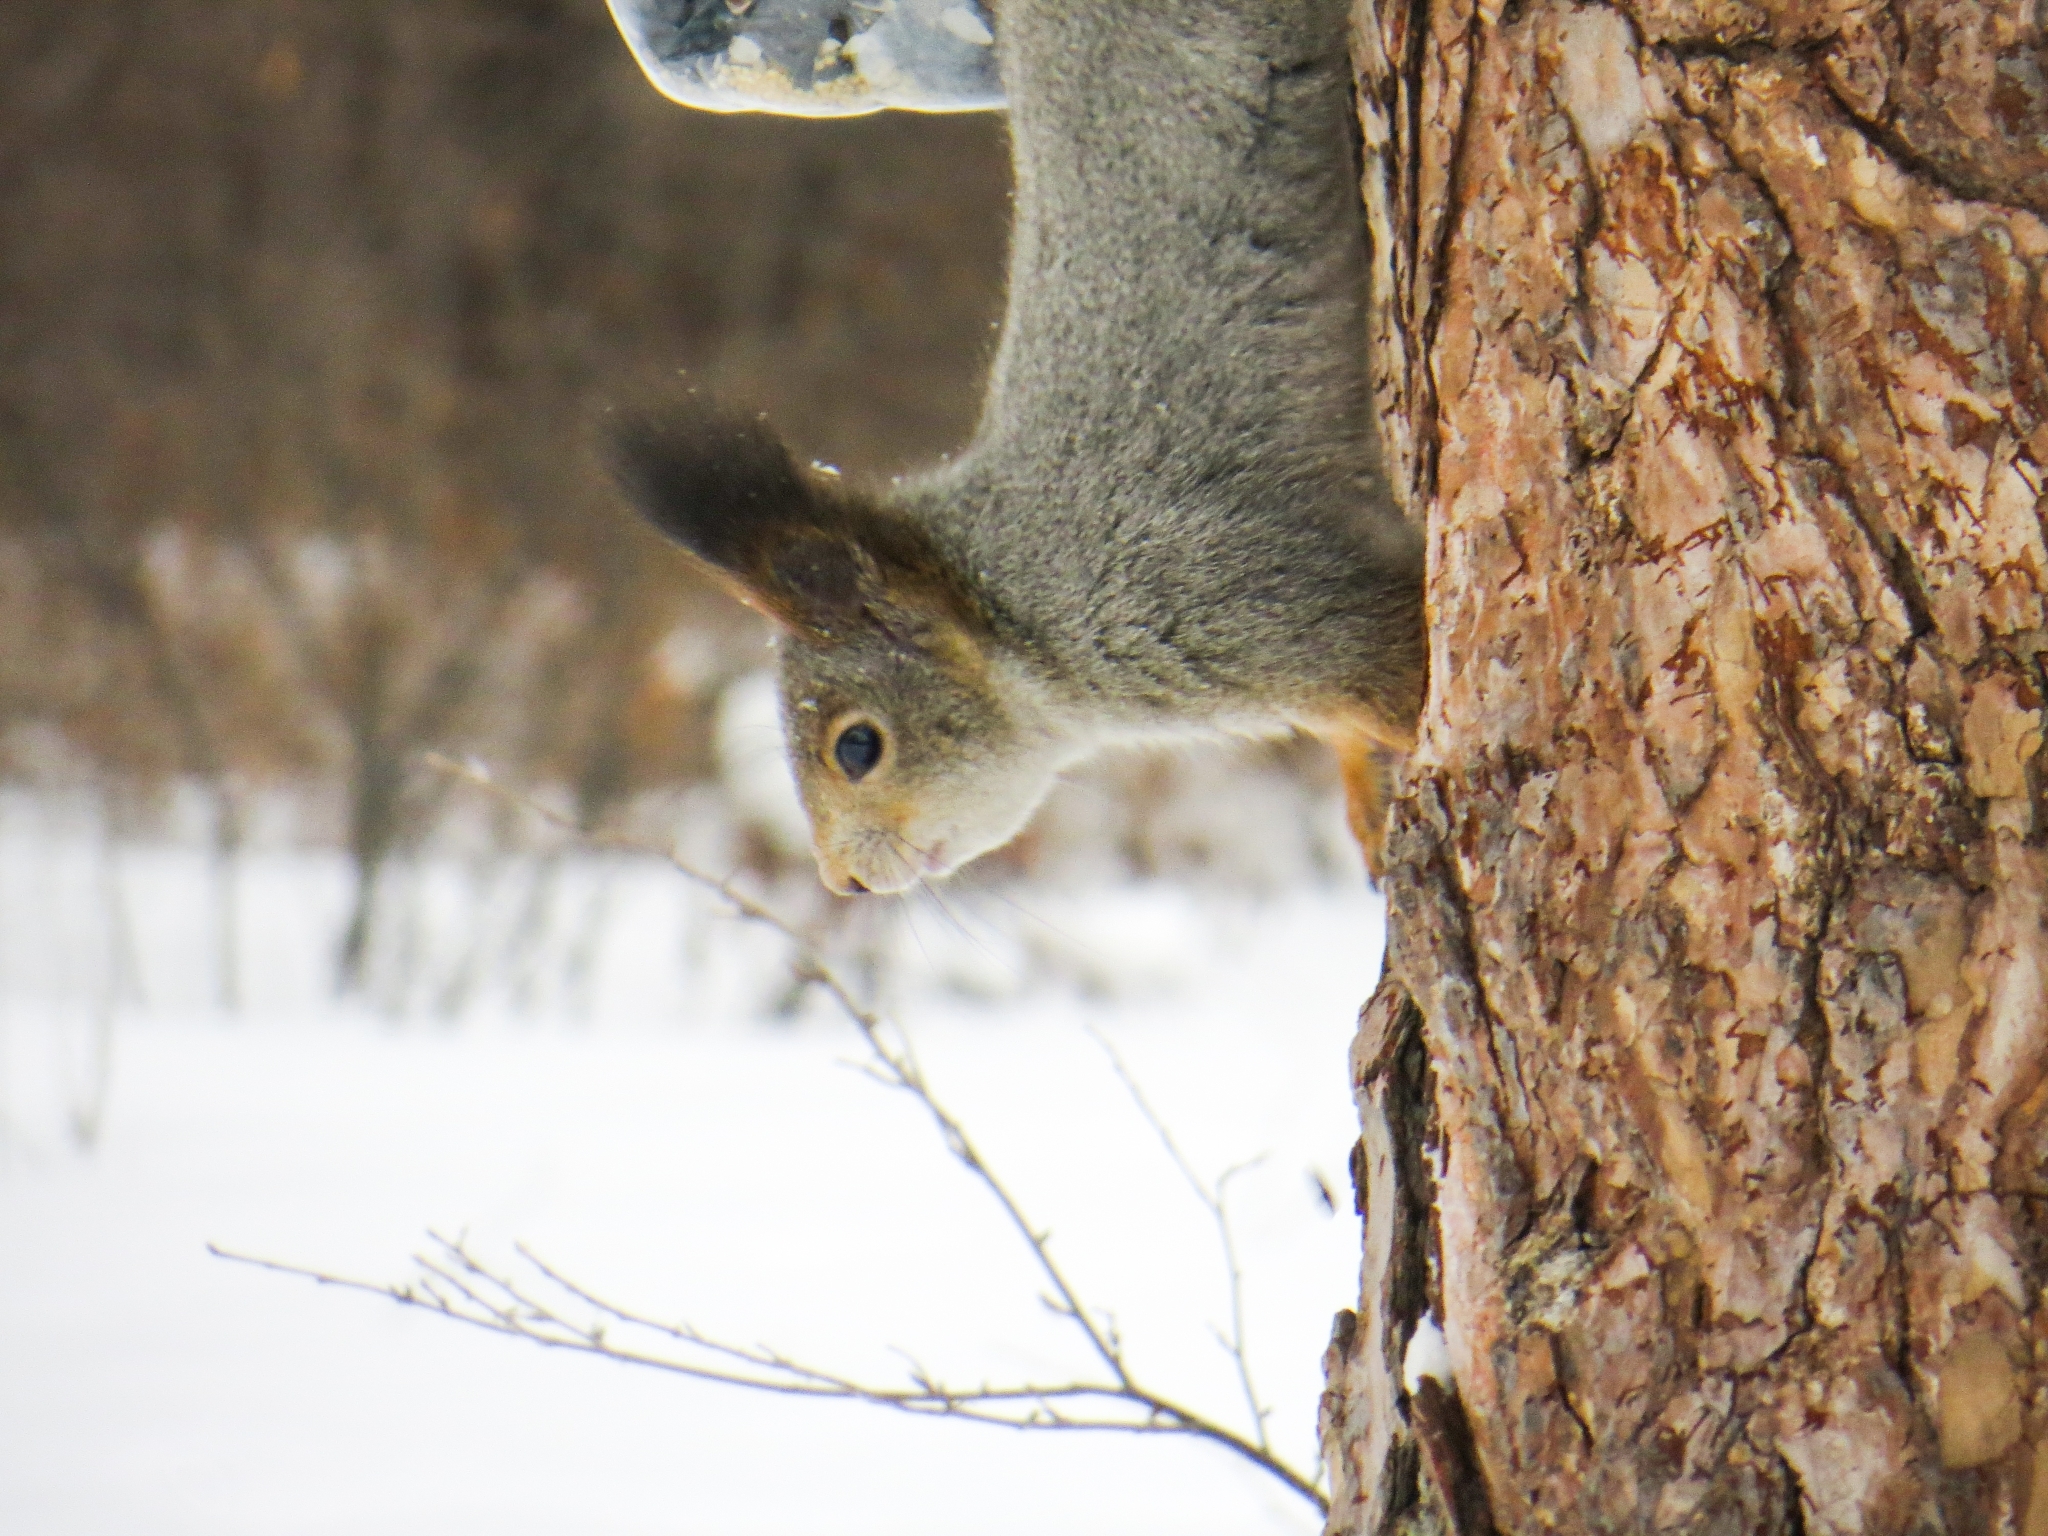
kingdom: Animalia
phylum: Chordata
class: Mammalia
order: Rodentia
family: Sciuridae
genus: Sciurus
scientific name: Sciurus vulgaris
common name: Eurasian red squirrel
